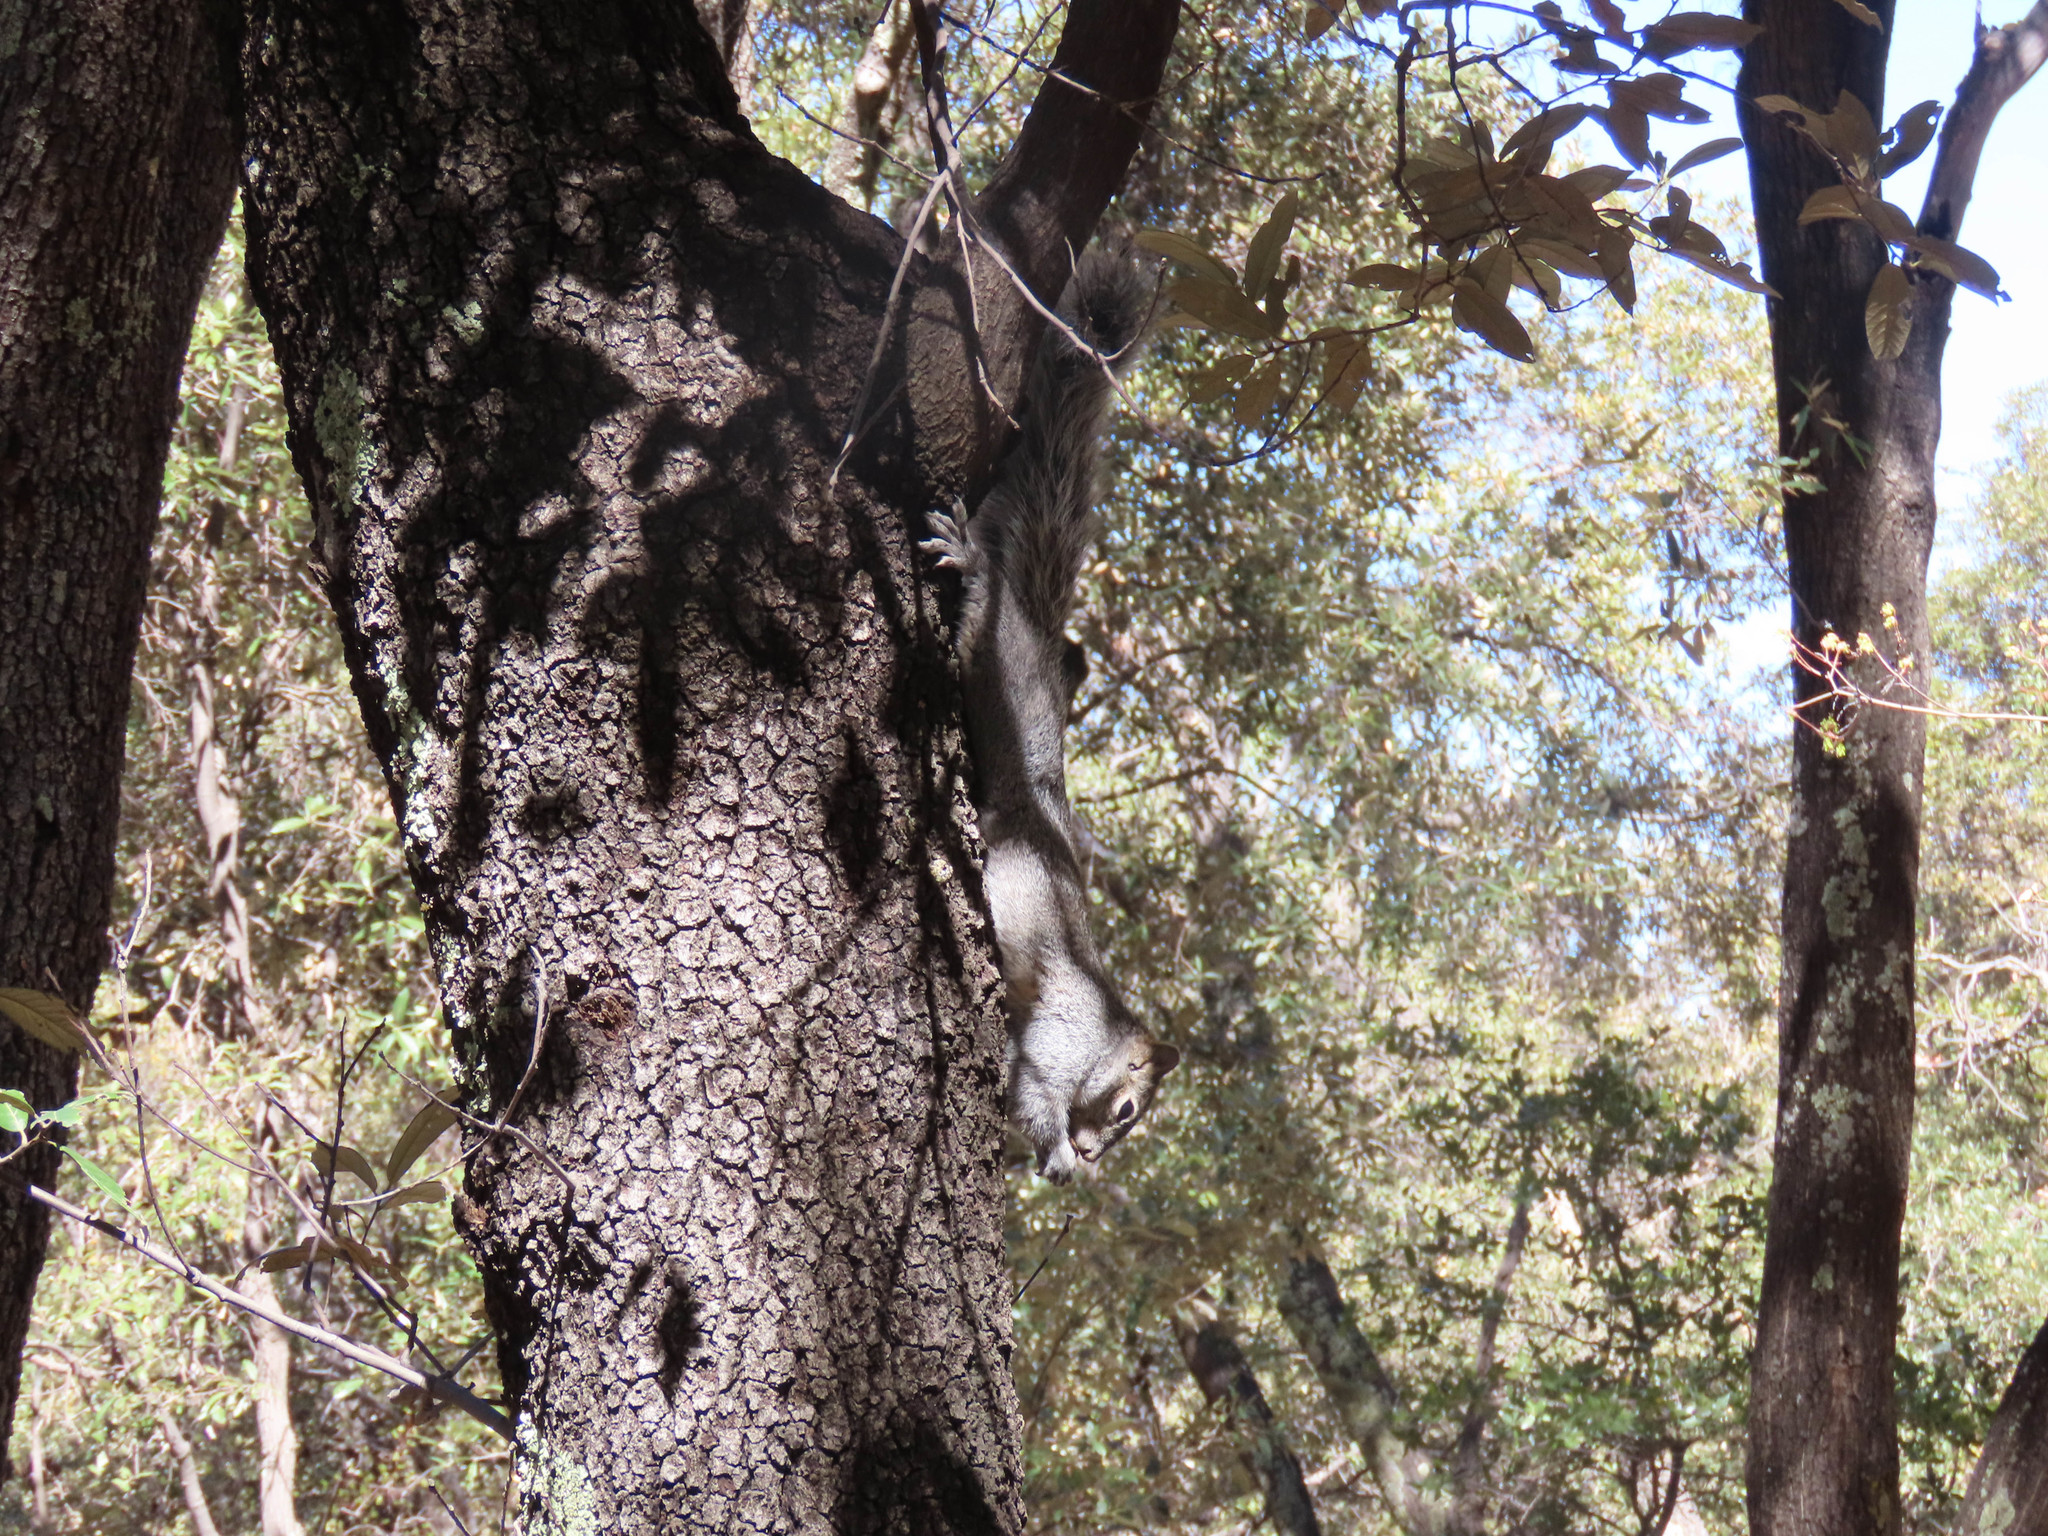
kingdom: Animalia
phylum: Chordata
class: Mammalia
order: Rodentia
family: Sciuridae
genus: Sciurus
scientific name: Sciurus arizonensis
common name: Arizona gray squirrel
